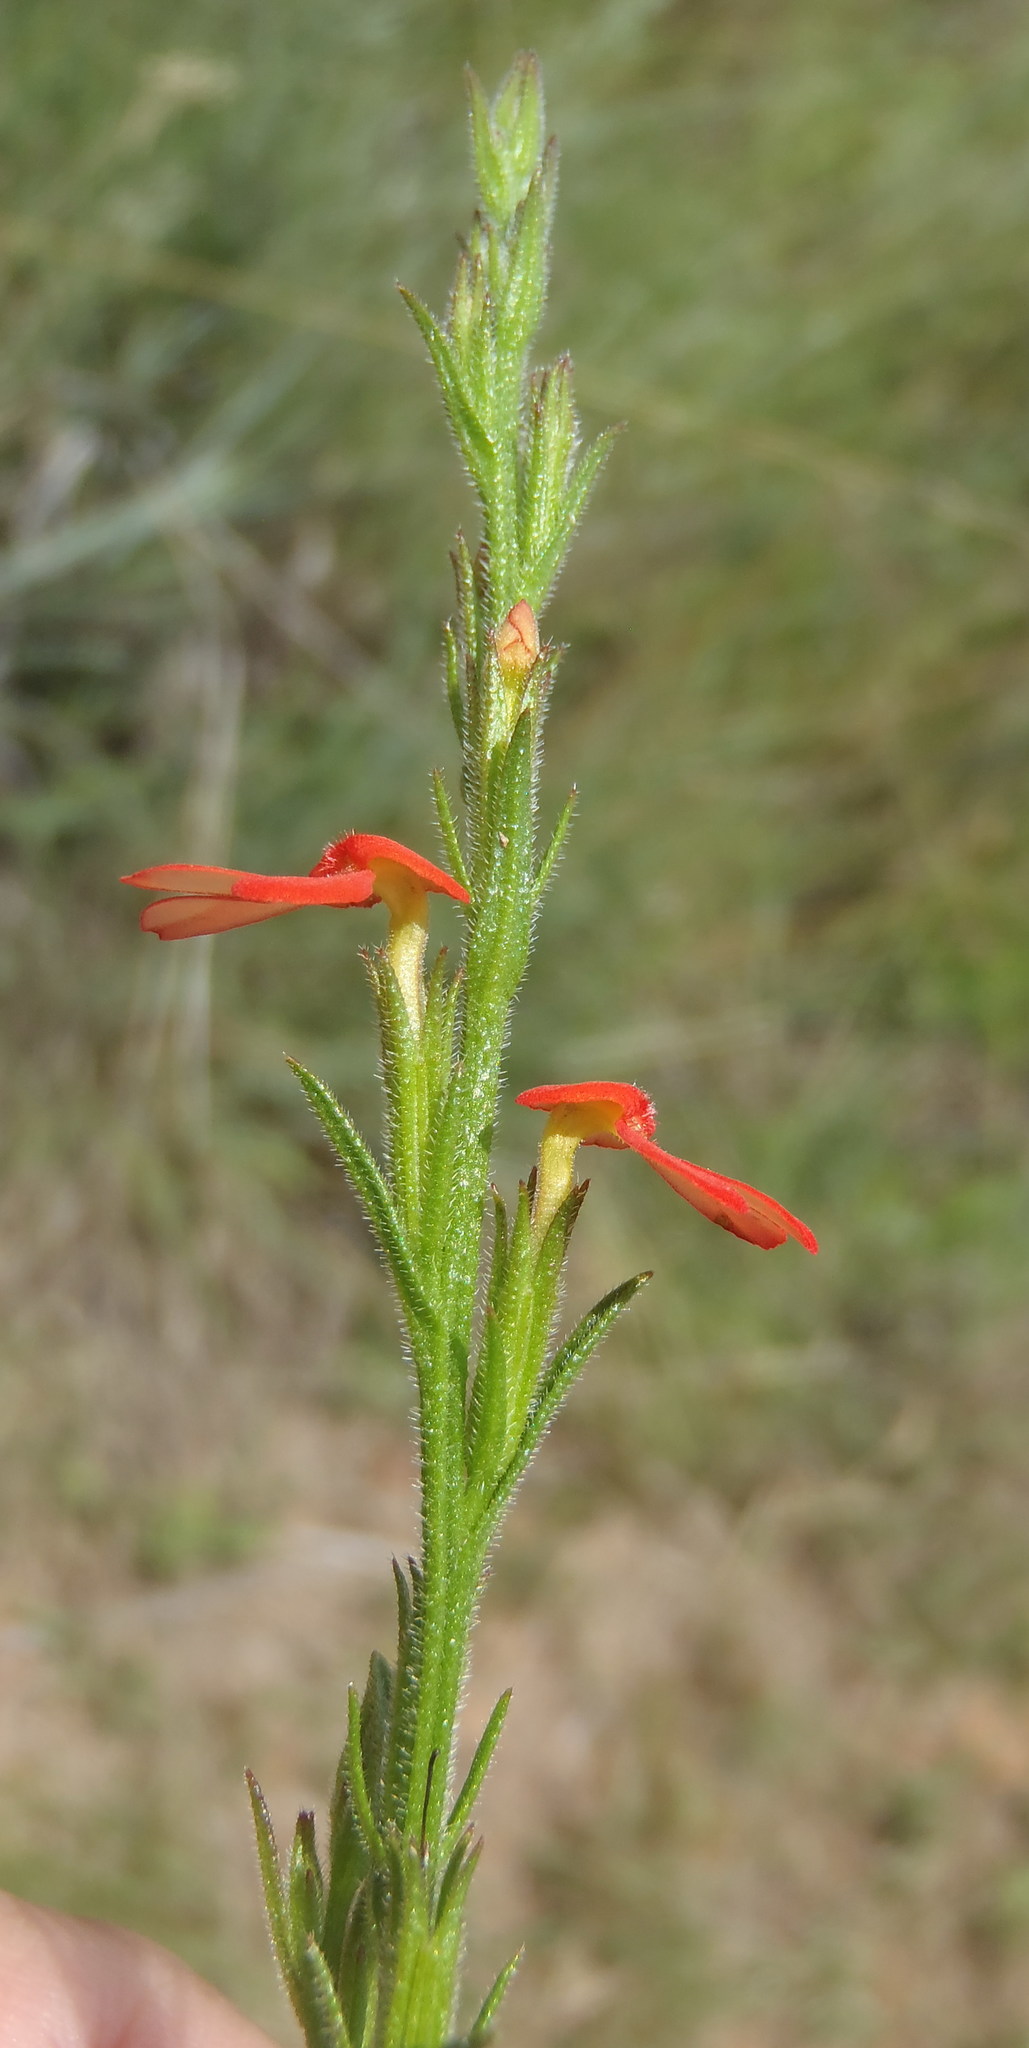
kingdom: Plantae
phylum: Tracheophyta
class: Magnoliopsida
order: Lamiales
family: Orobanchaceae
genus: Striga
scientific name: Striga elegans
